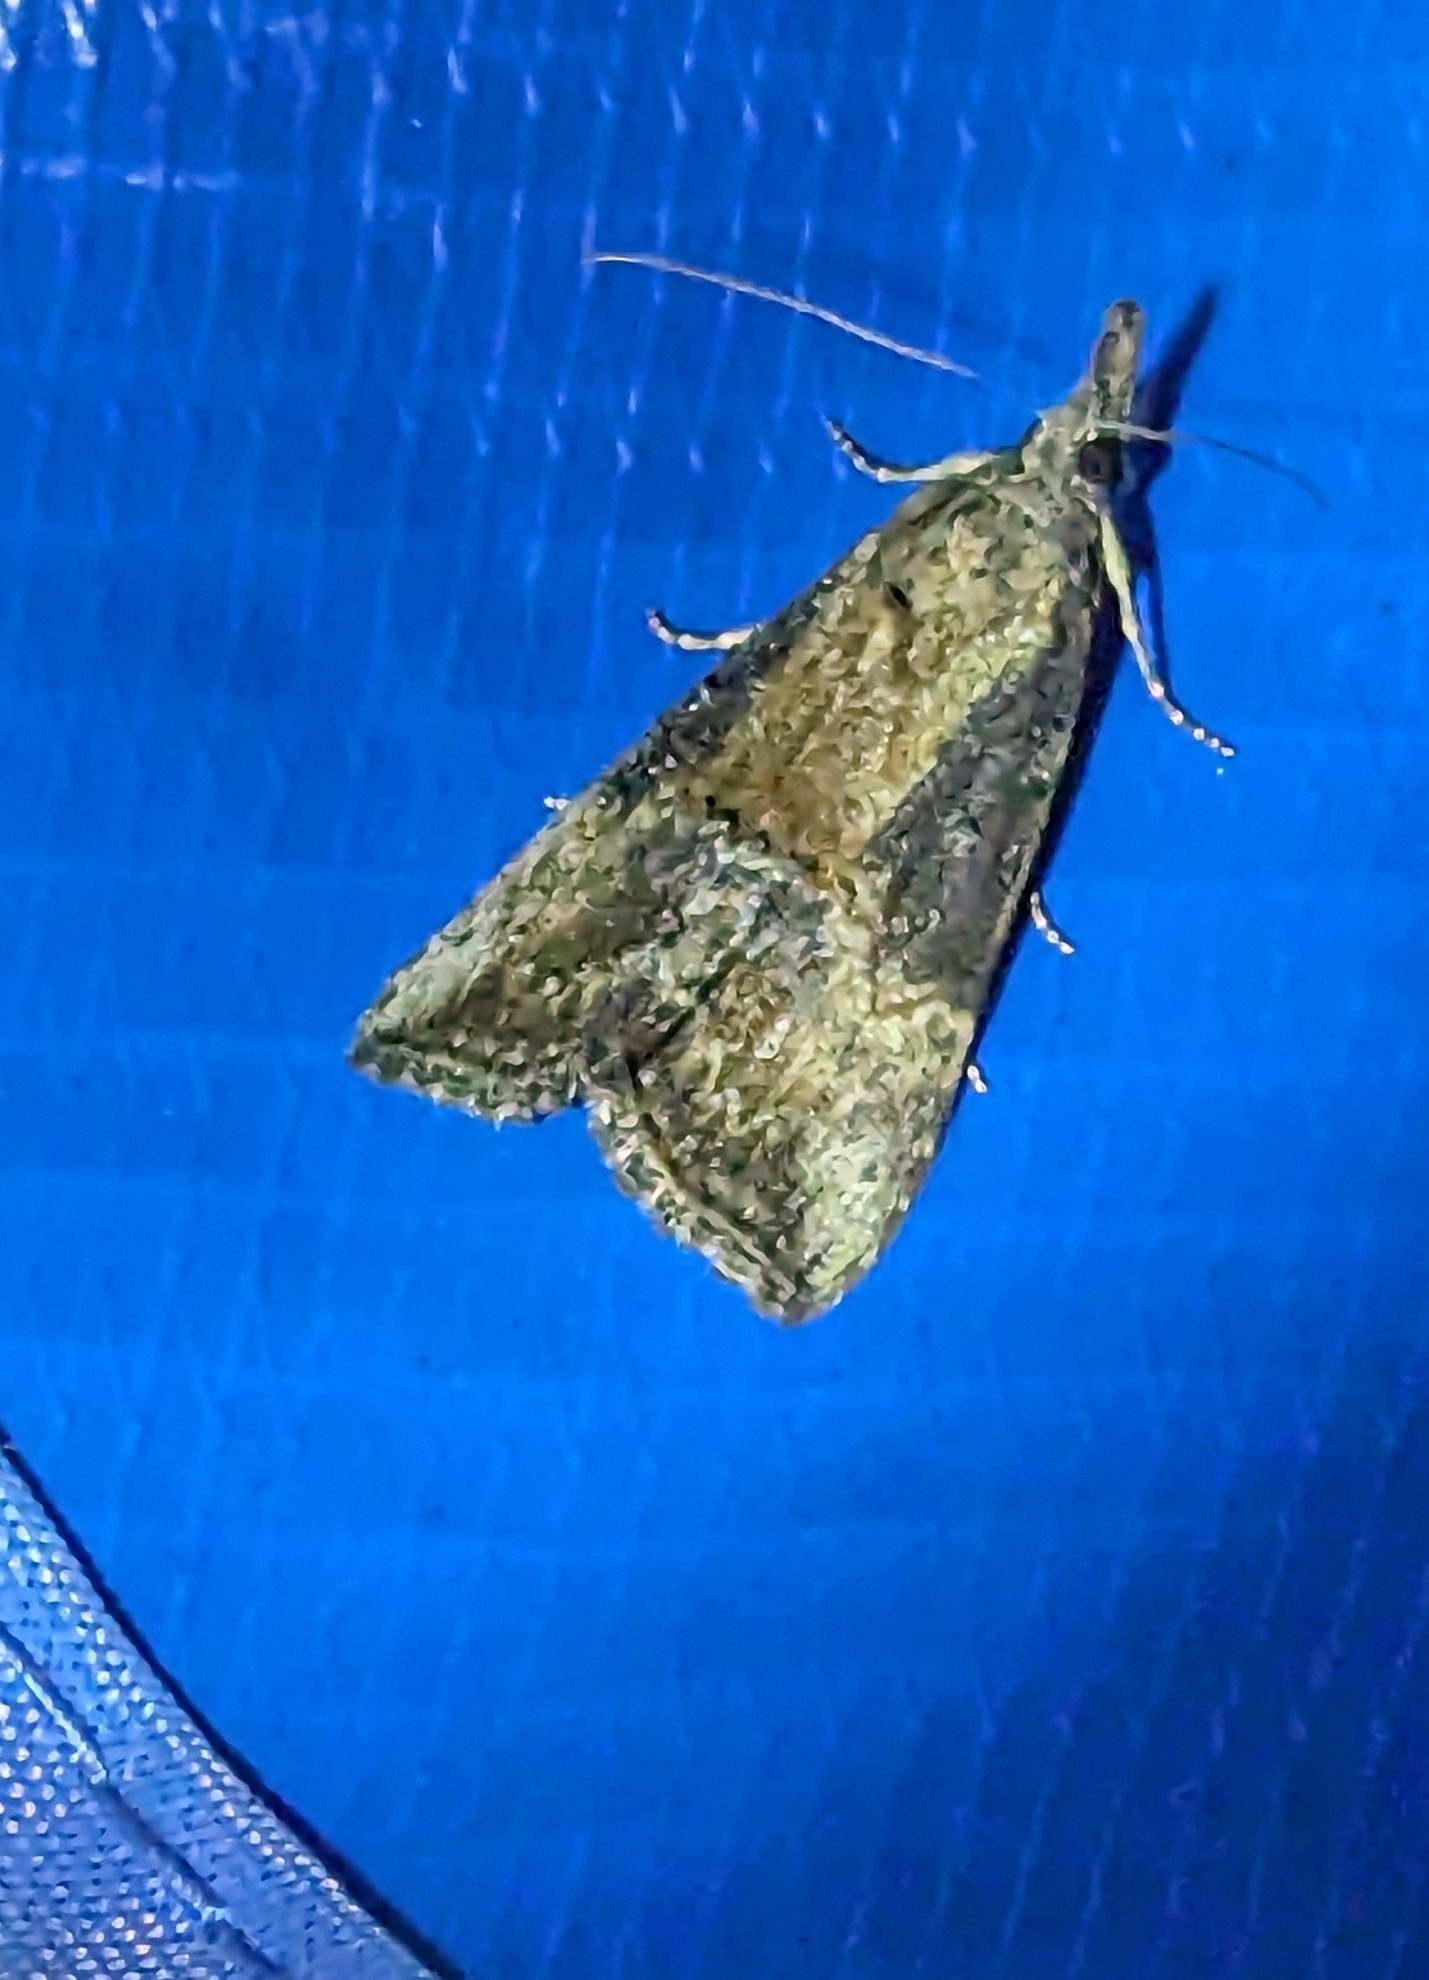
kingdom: Animalia
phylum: Arthropoda
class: Insecta
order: Lepidoptera
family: Erebidae
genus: Hypena
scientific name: Hypena scabra
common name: Green cloverworm
